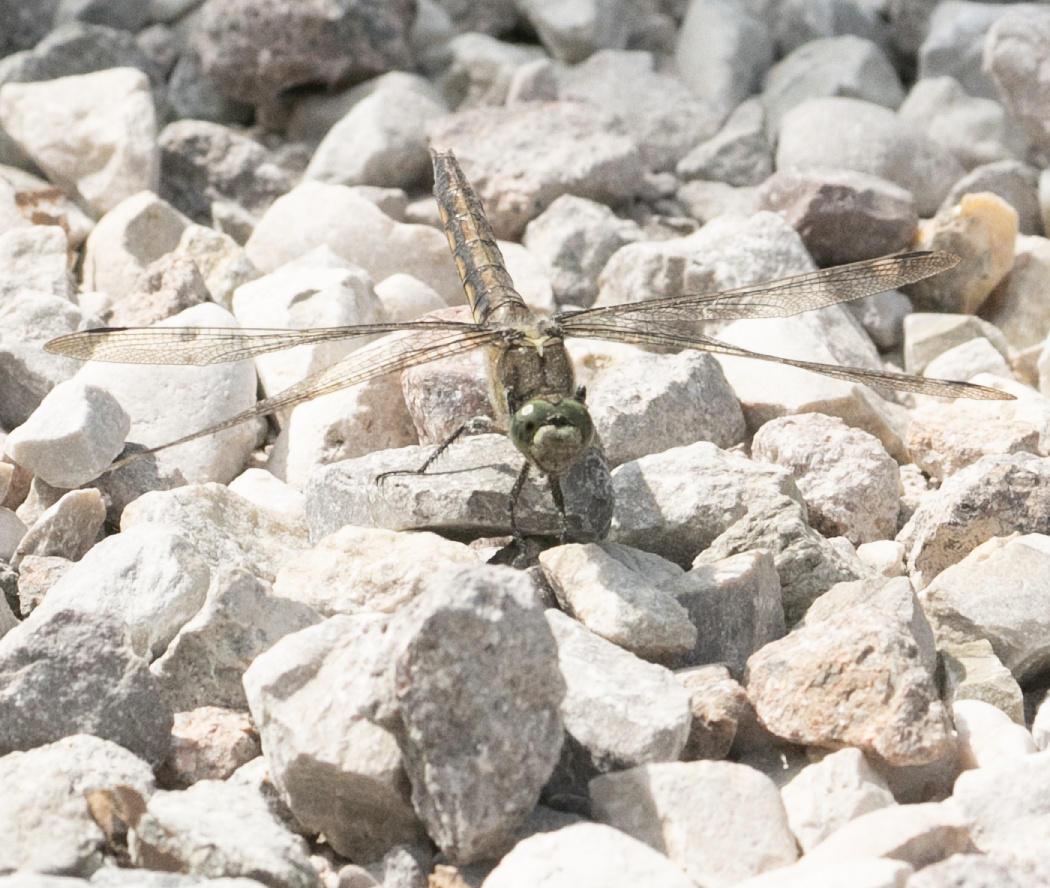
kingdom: Animalia
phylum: Arthropoda
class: Insecta
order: Odonata
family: Libellulidae
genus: Orthetrum
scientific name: Orthetrum cancellatum
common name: Black-tailed skimmer
